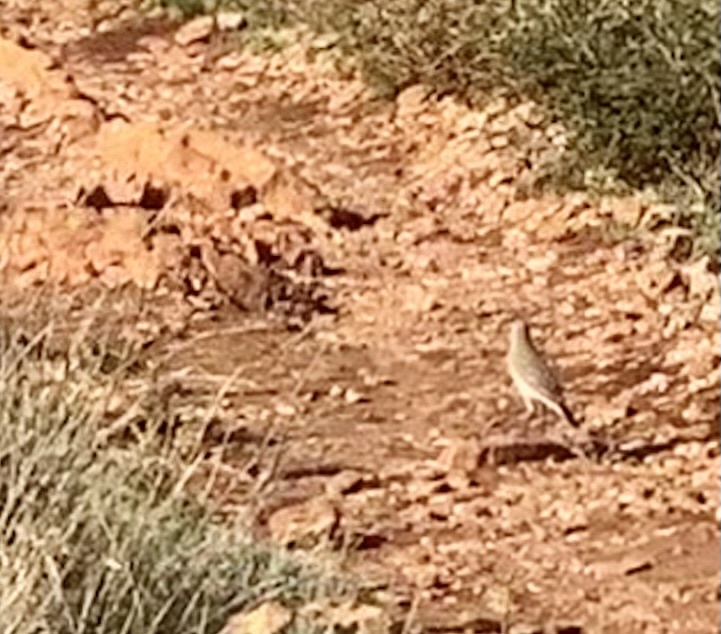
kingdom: Animalia
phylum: Chordata
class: Aves
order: Passeriformes
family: Motacillidae
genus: Anthus
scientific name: Anthus campestris
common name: Tawny pipit
